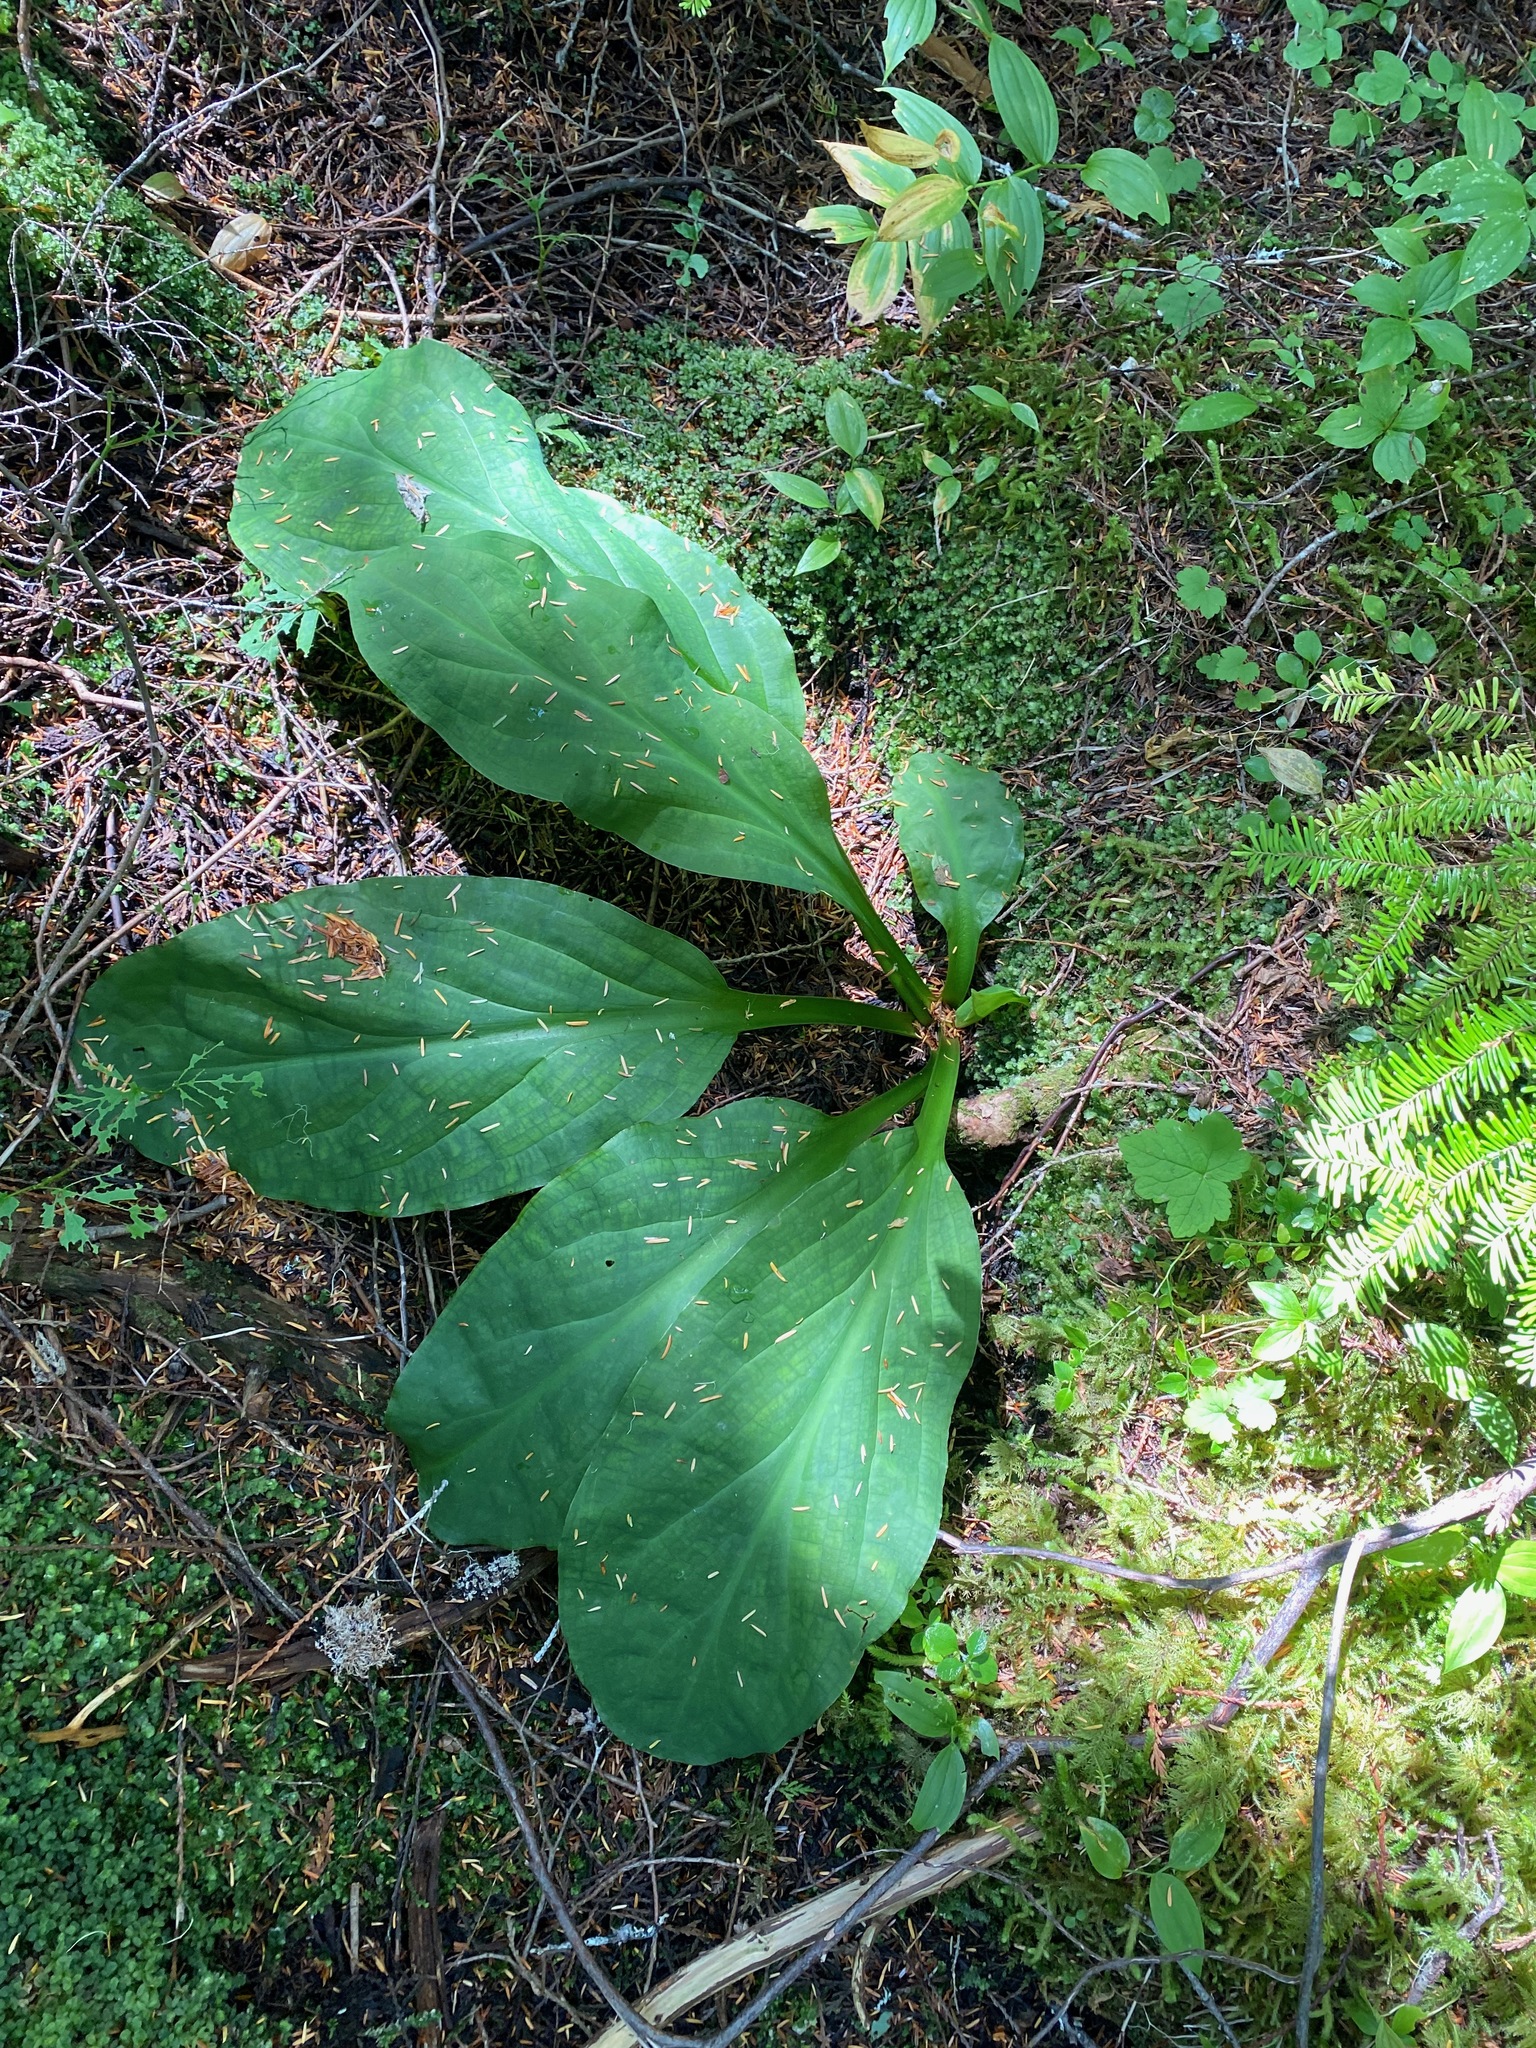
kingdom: Plantae
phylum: Tracheophyta
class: Liliopsida
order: Alismatales
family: Araceae
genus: Lysichiton
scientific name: Lysichiton americanus
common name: American skunk cabbage
